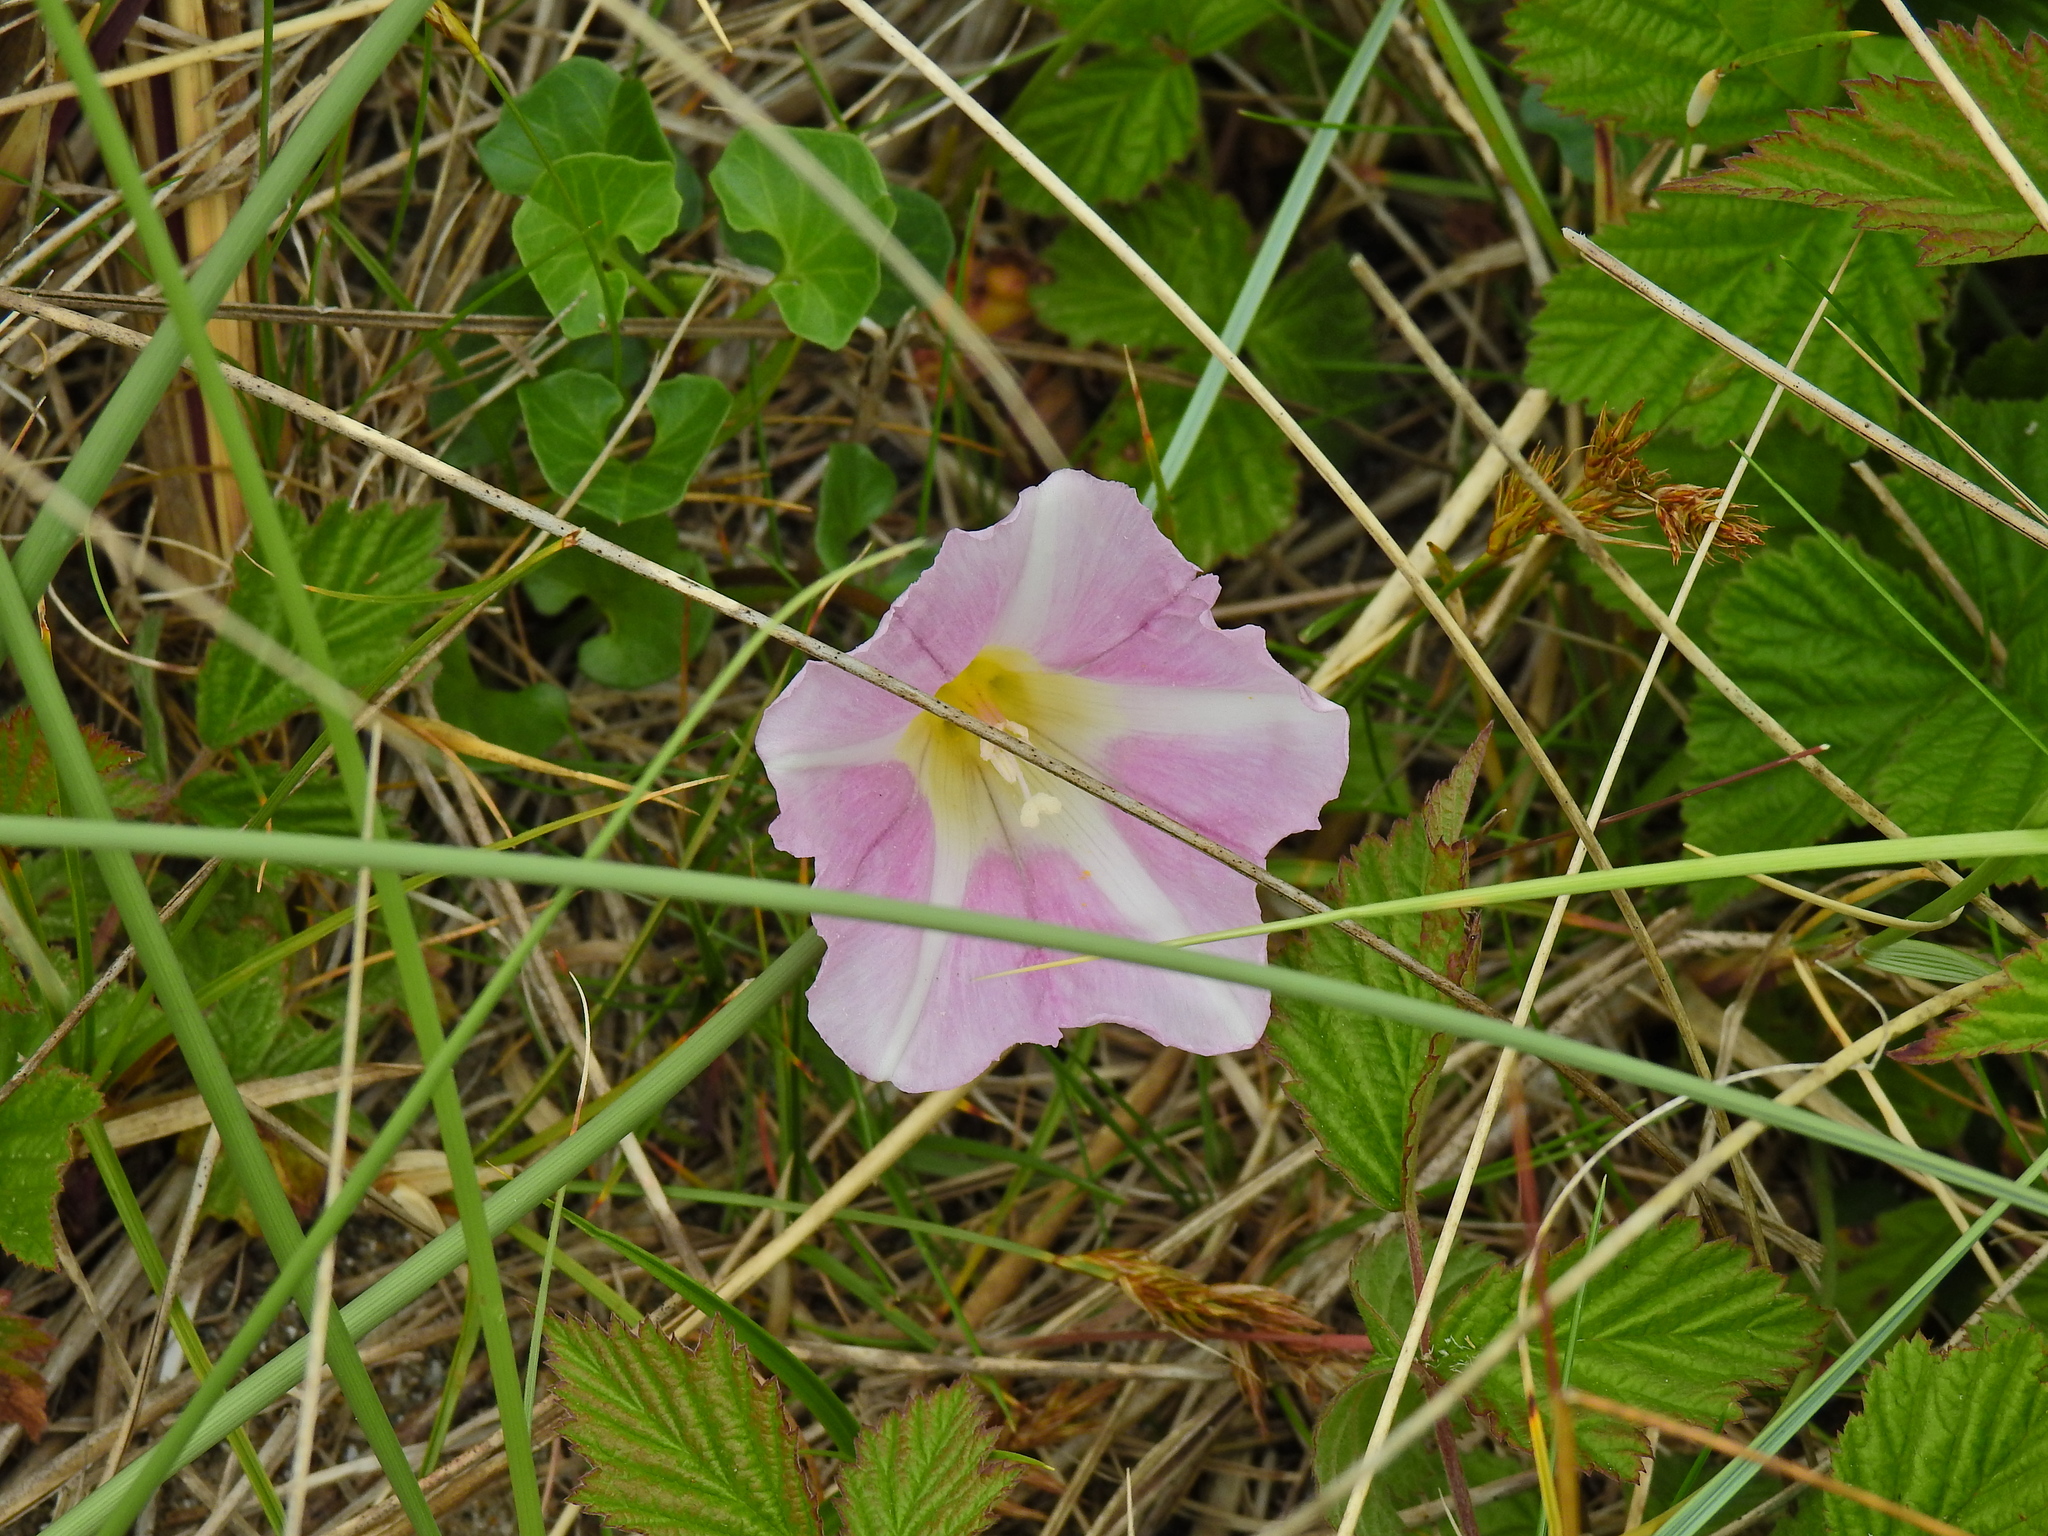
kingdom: Plantae
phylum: Tracheophyta
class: Magnoliopsida
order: Solanales
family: Convolvulaceae
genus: Calystegia
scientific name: Calystegia soldanella
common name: Sea bindweed
